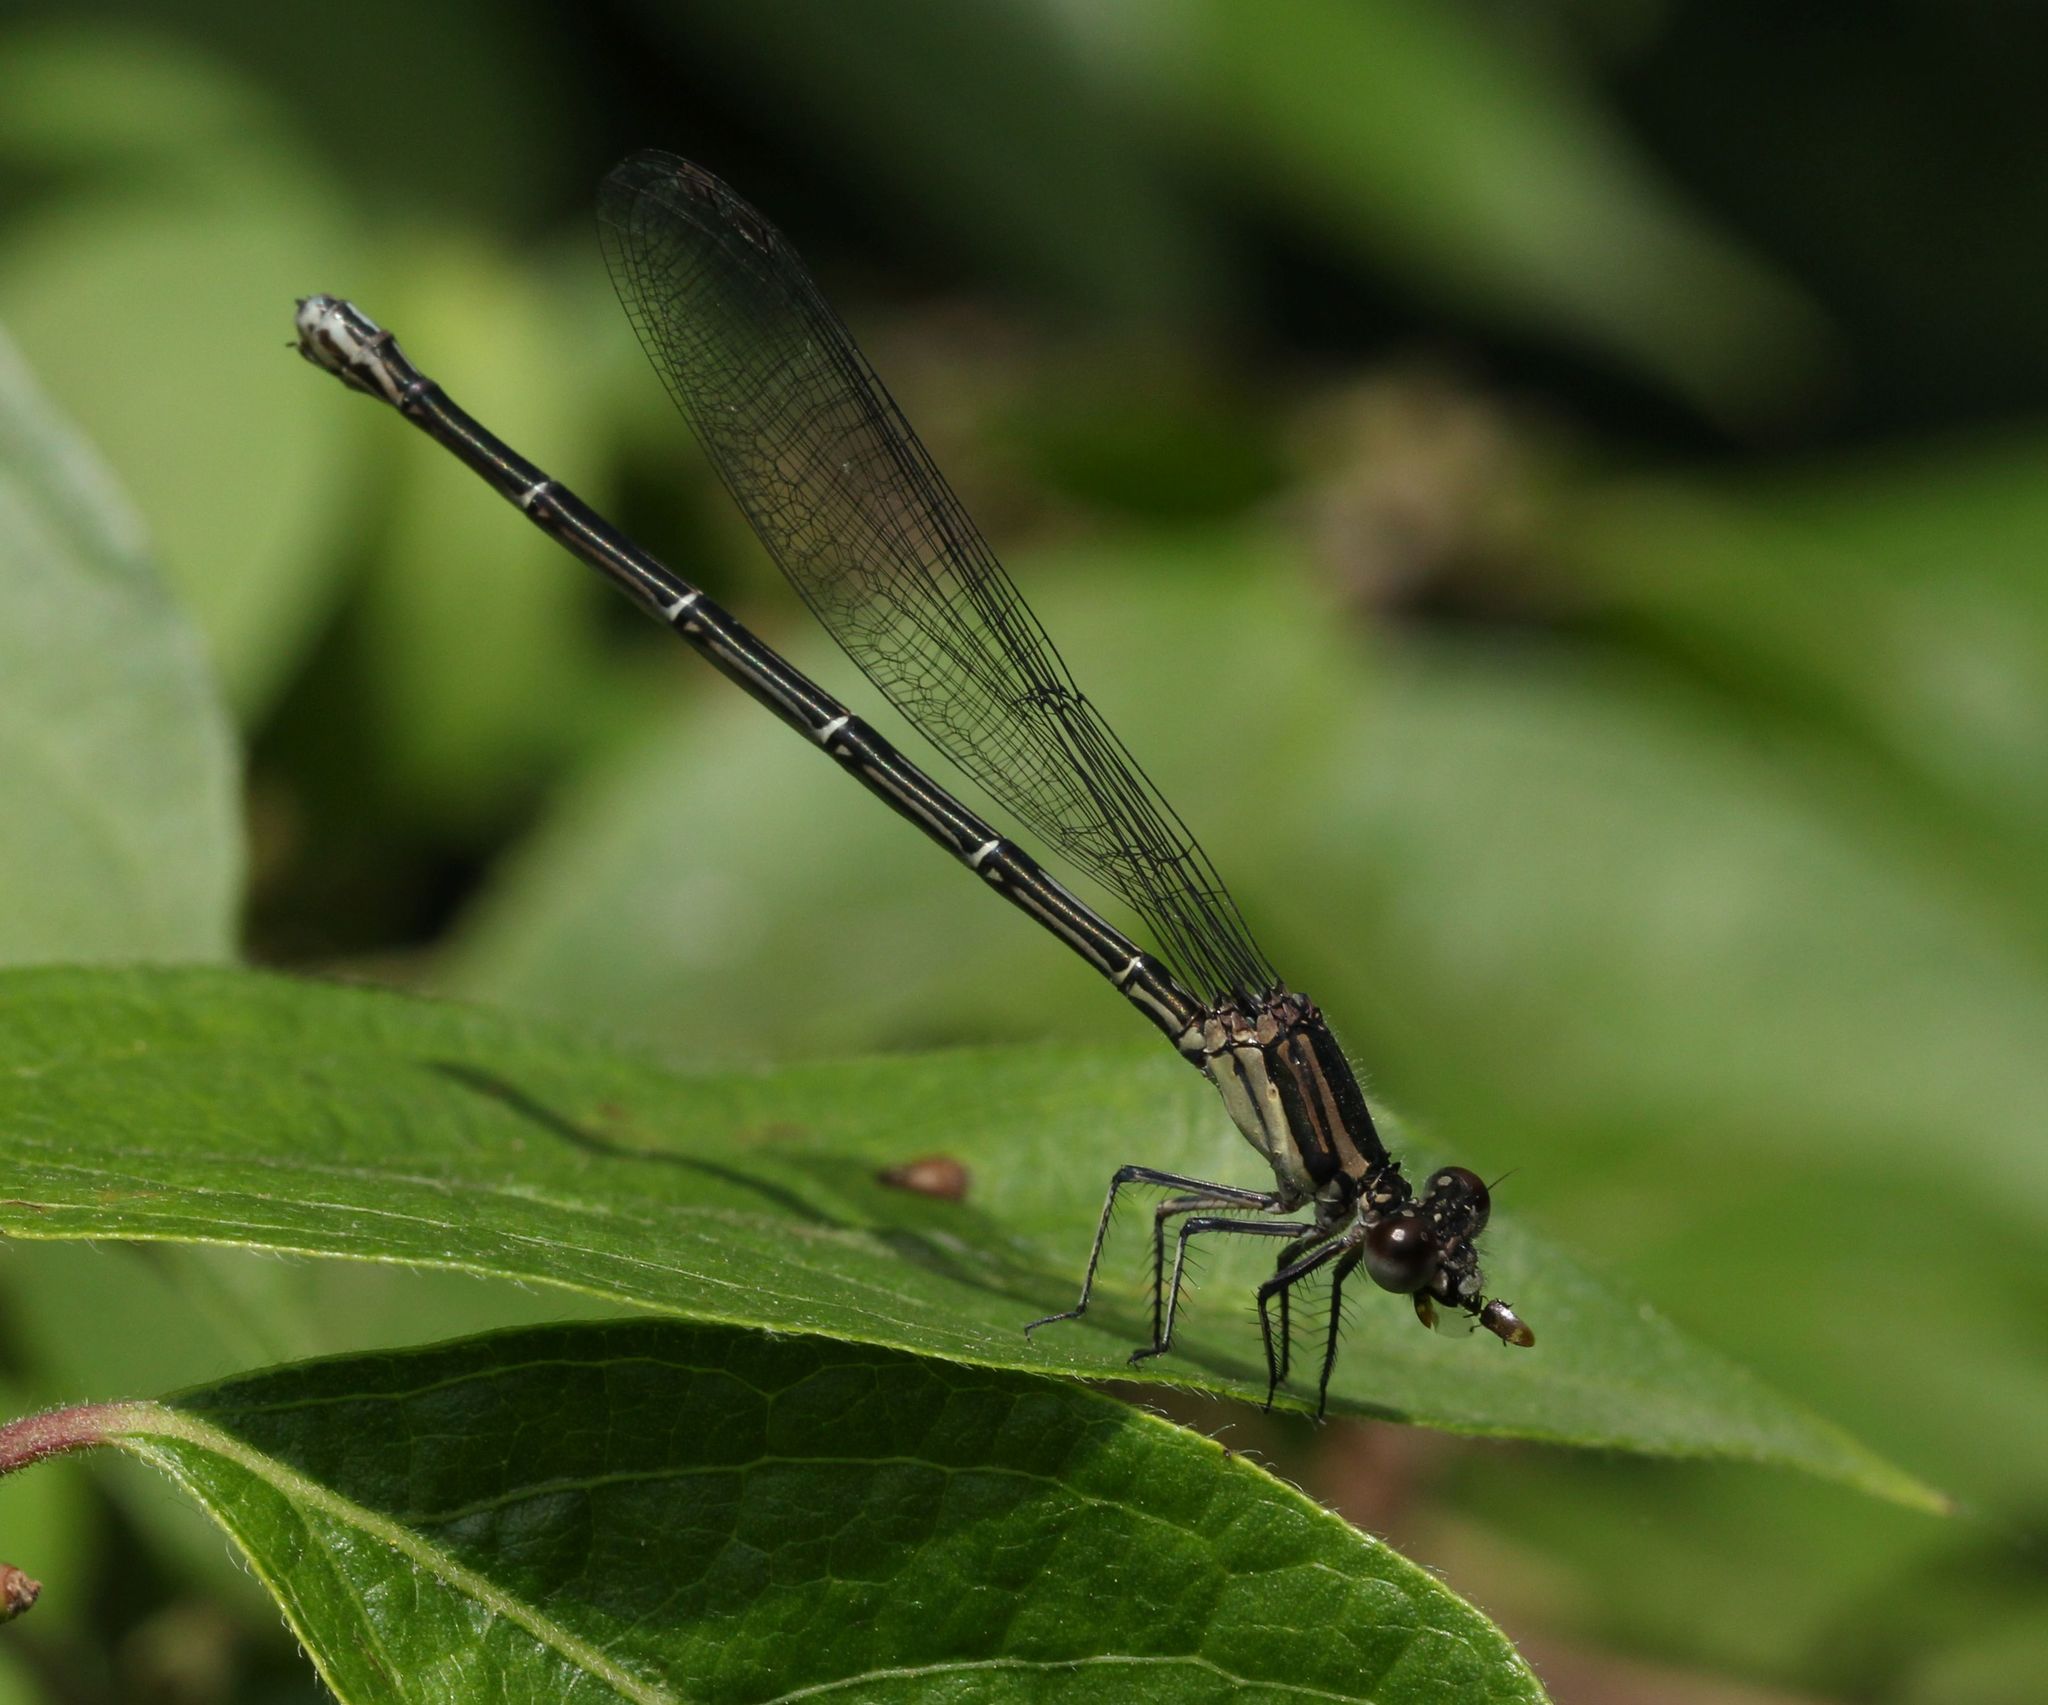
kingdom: Animalia
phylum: Arthropoda
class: Insecta
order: Odonata
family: Coenagrionidae
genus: Argia
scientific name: Argia translata
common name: Dusky dancer
